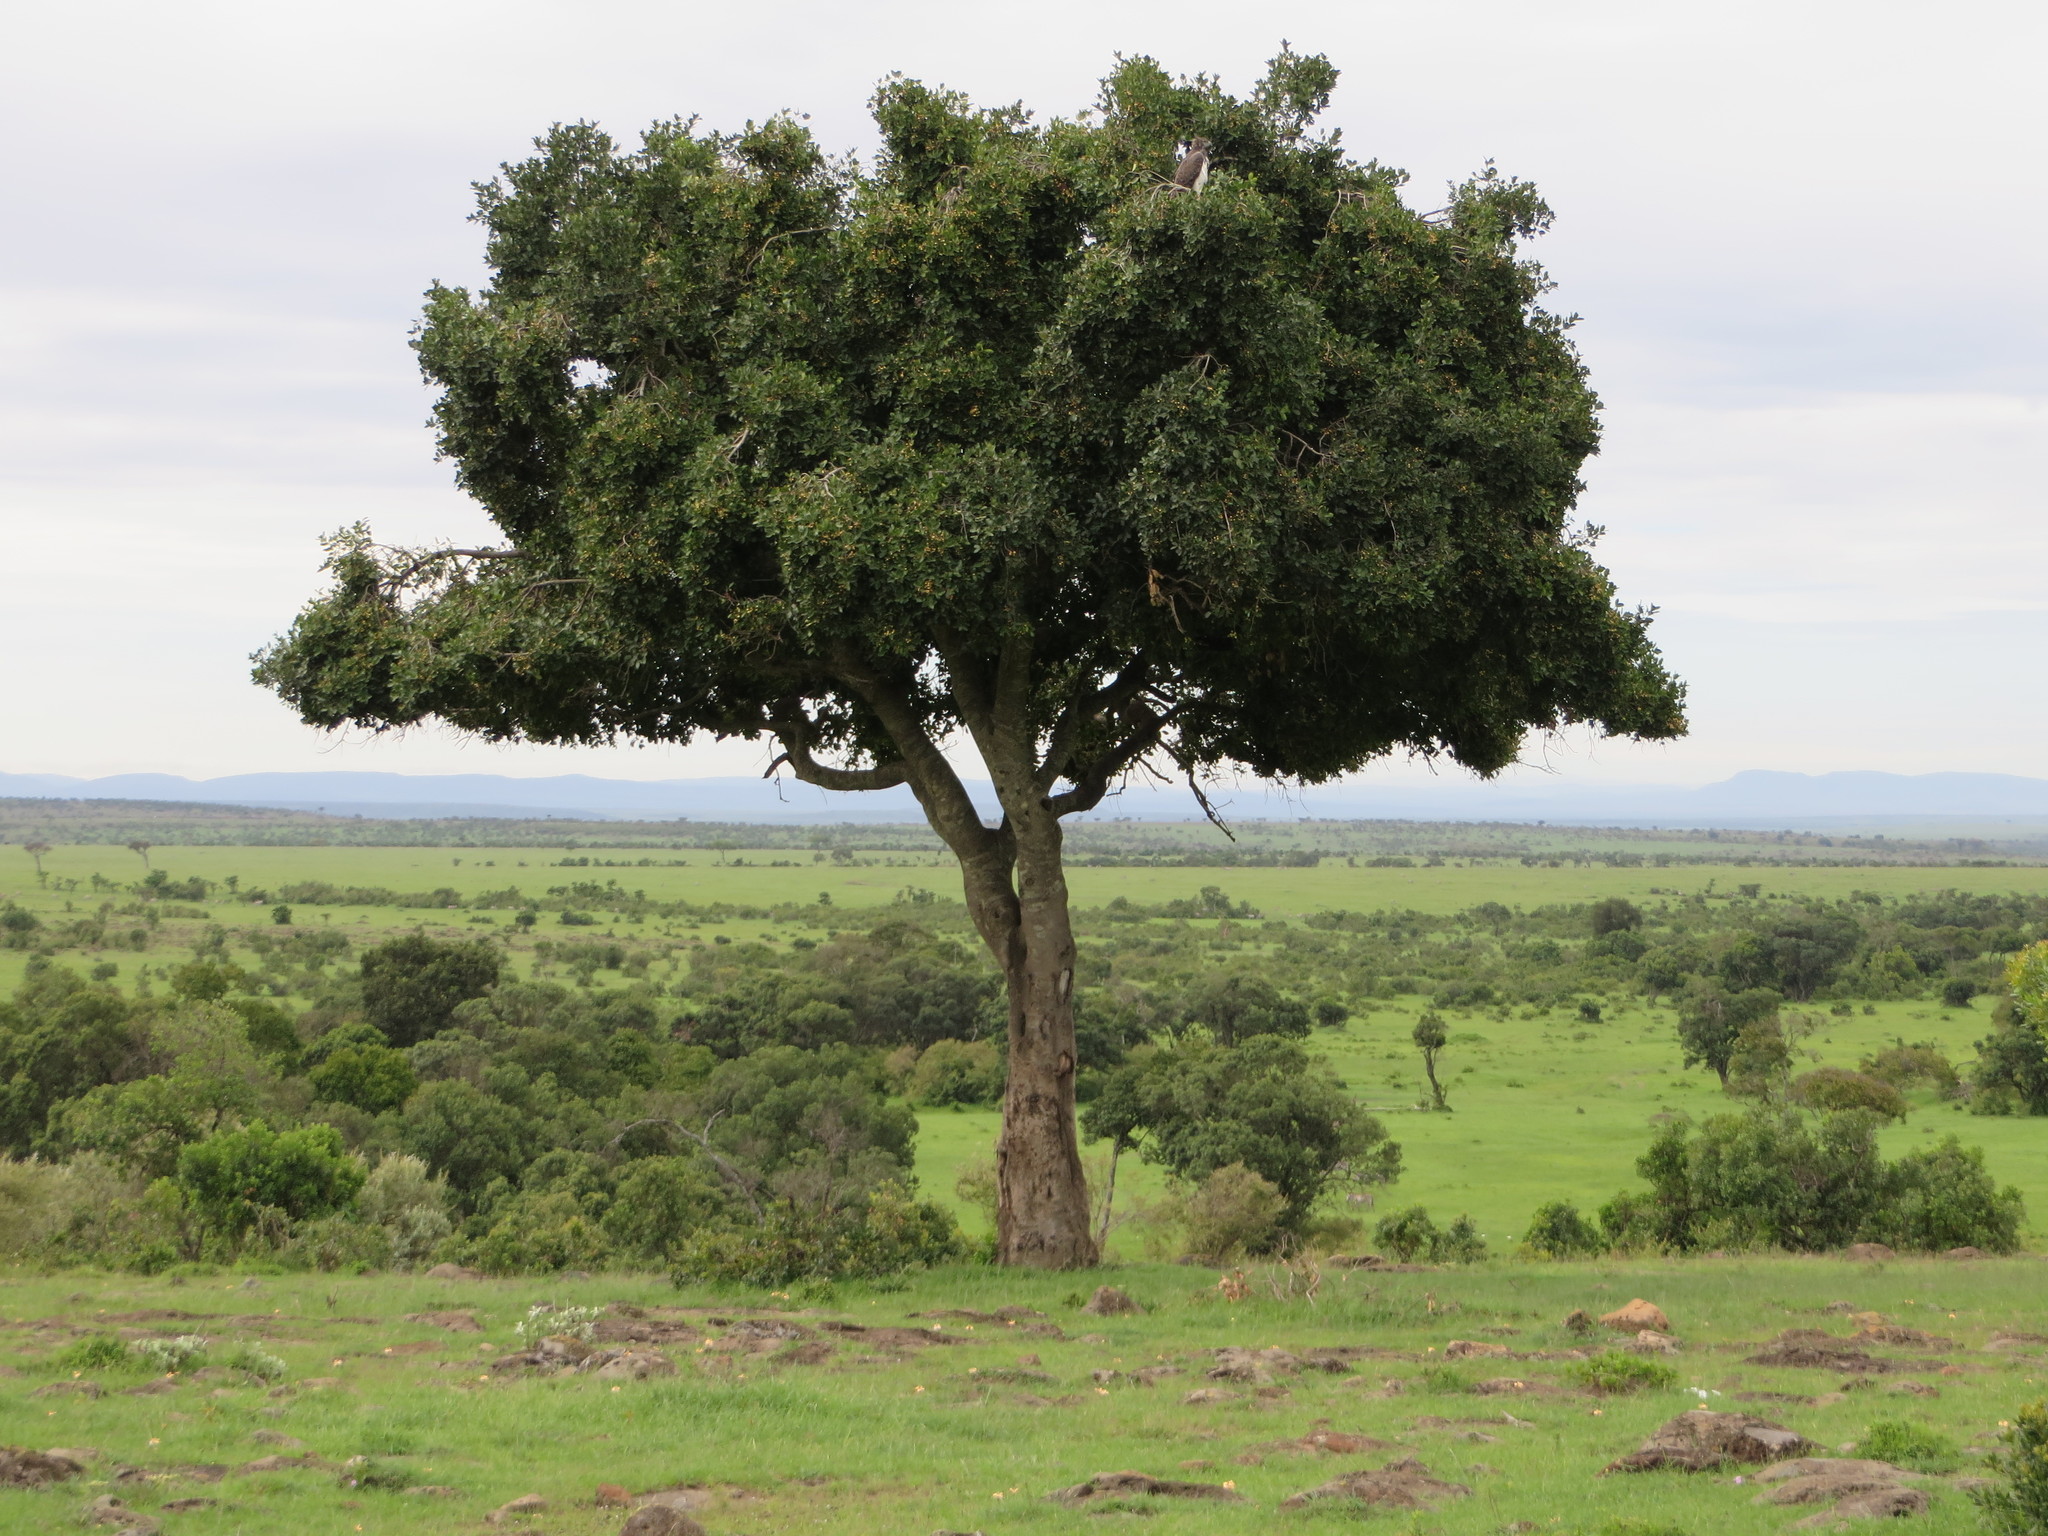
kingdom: Plantae
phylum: Tracheophyta
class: Magnoliopsida
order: Celastrales
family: Celastraceae
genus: Elaeodendron
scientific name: Elaeodendron buchananii
